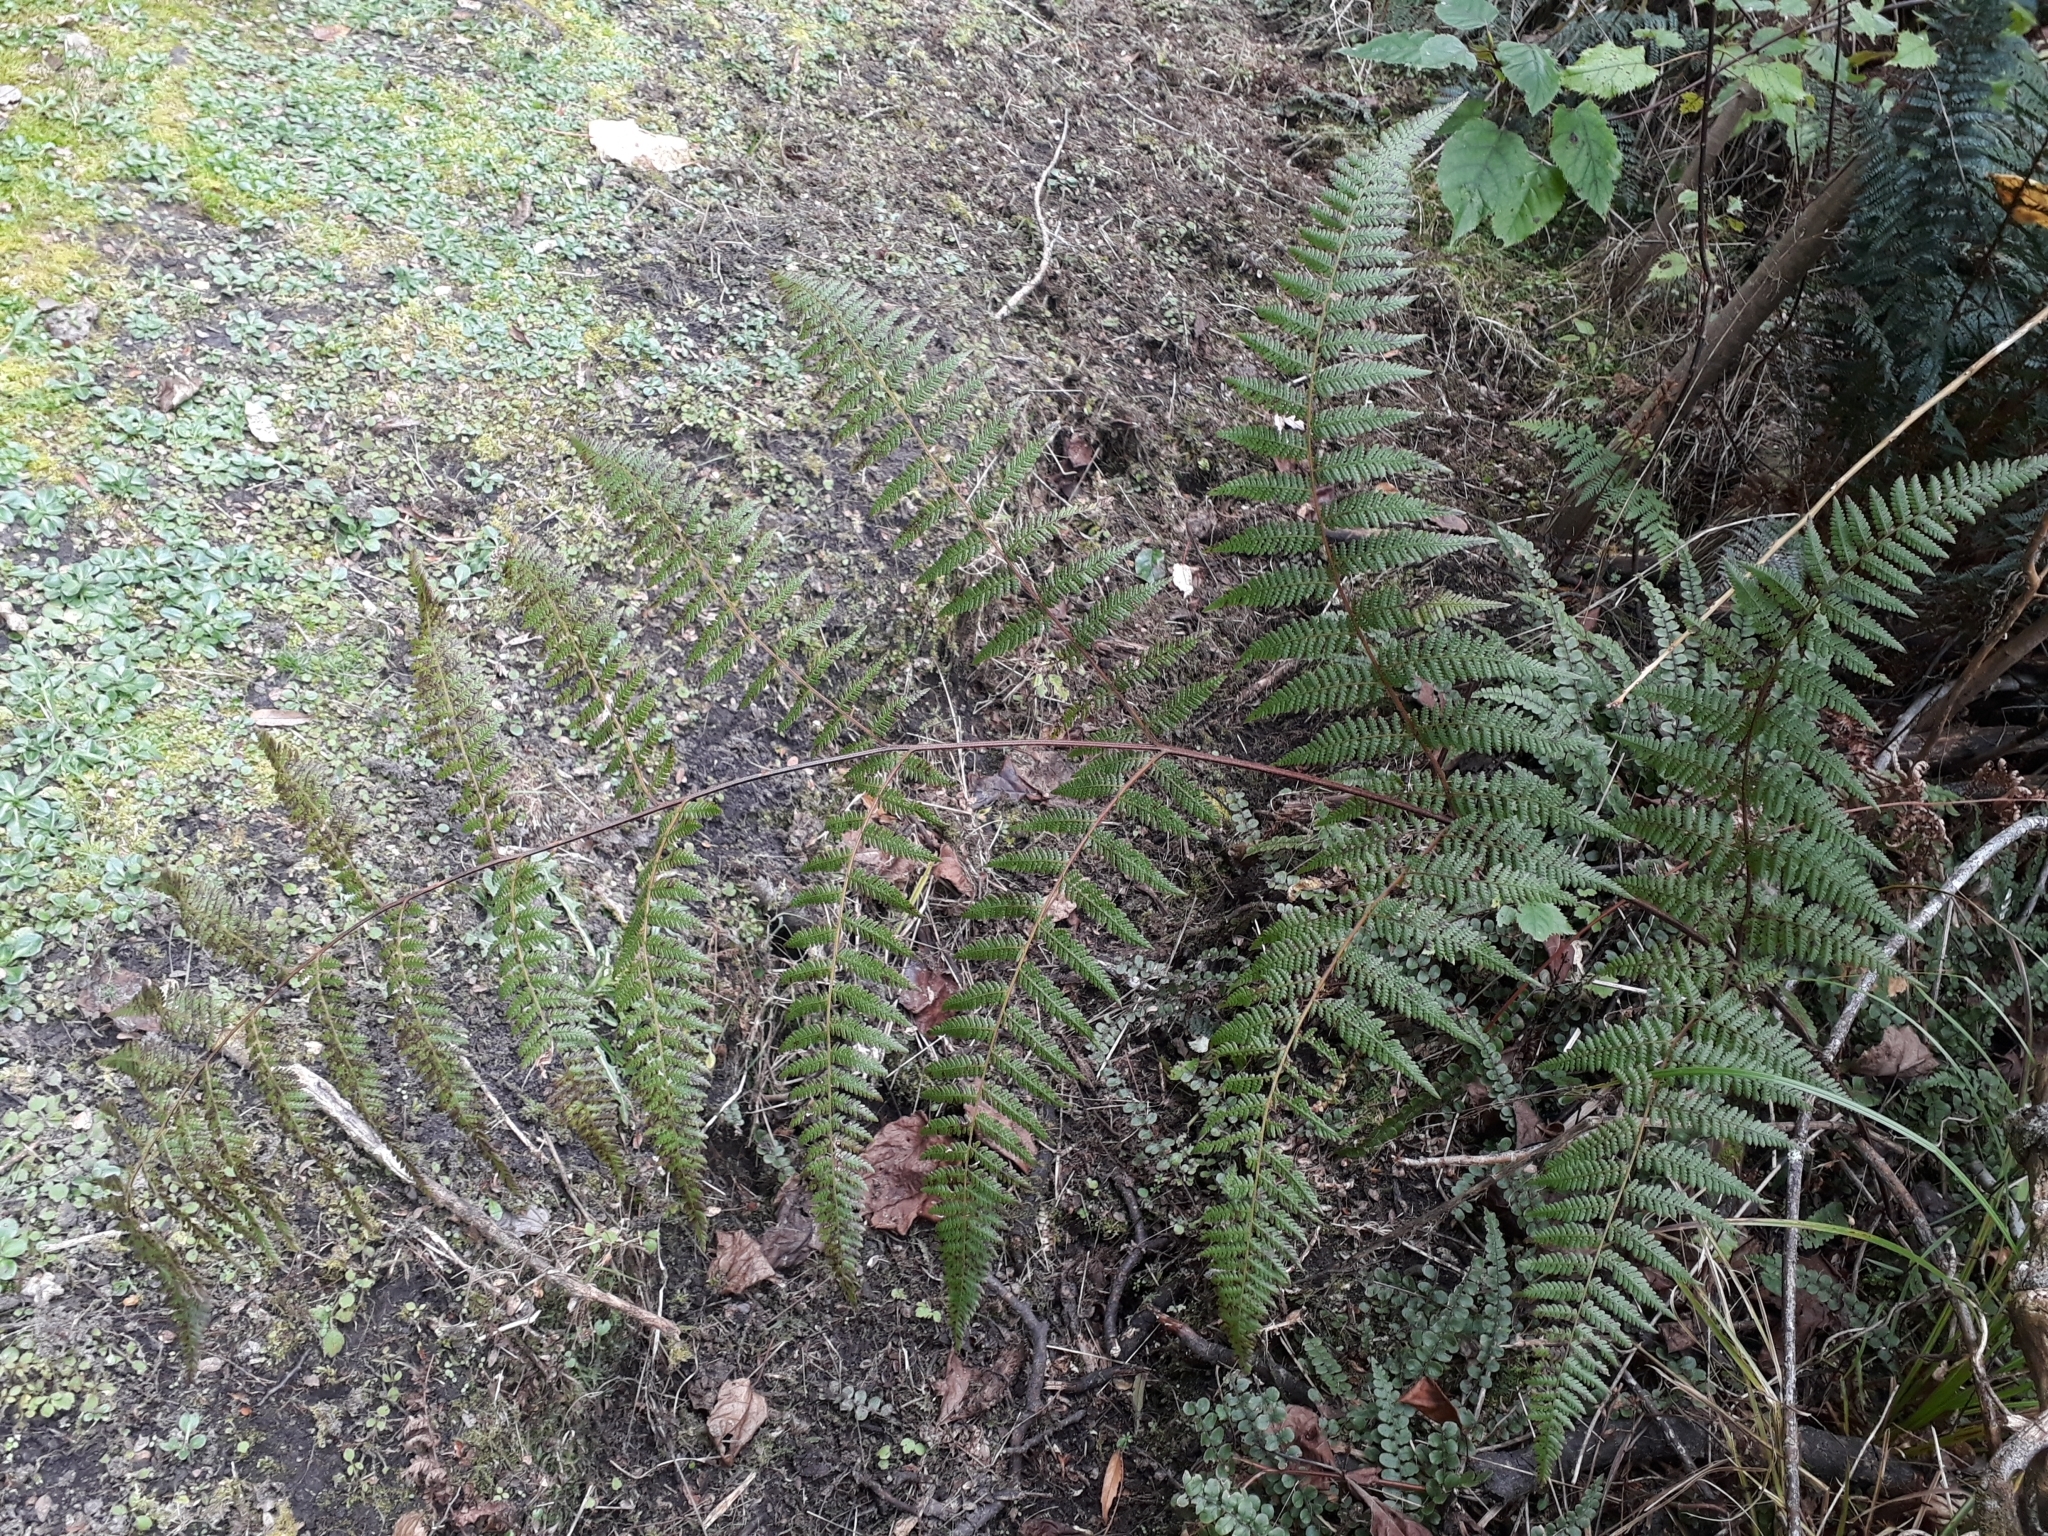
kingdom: Plantae
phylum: Tracheophyta
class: Polypodiopsida
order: Polypodiales
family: Dennstaedtiaceae
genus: Hypolepis
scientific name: Hypolepis ambigua
